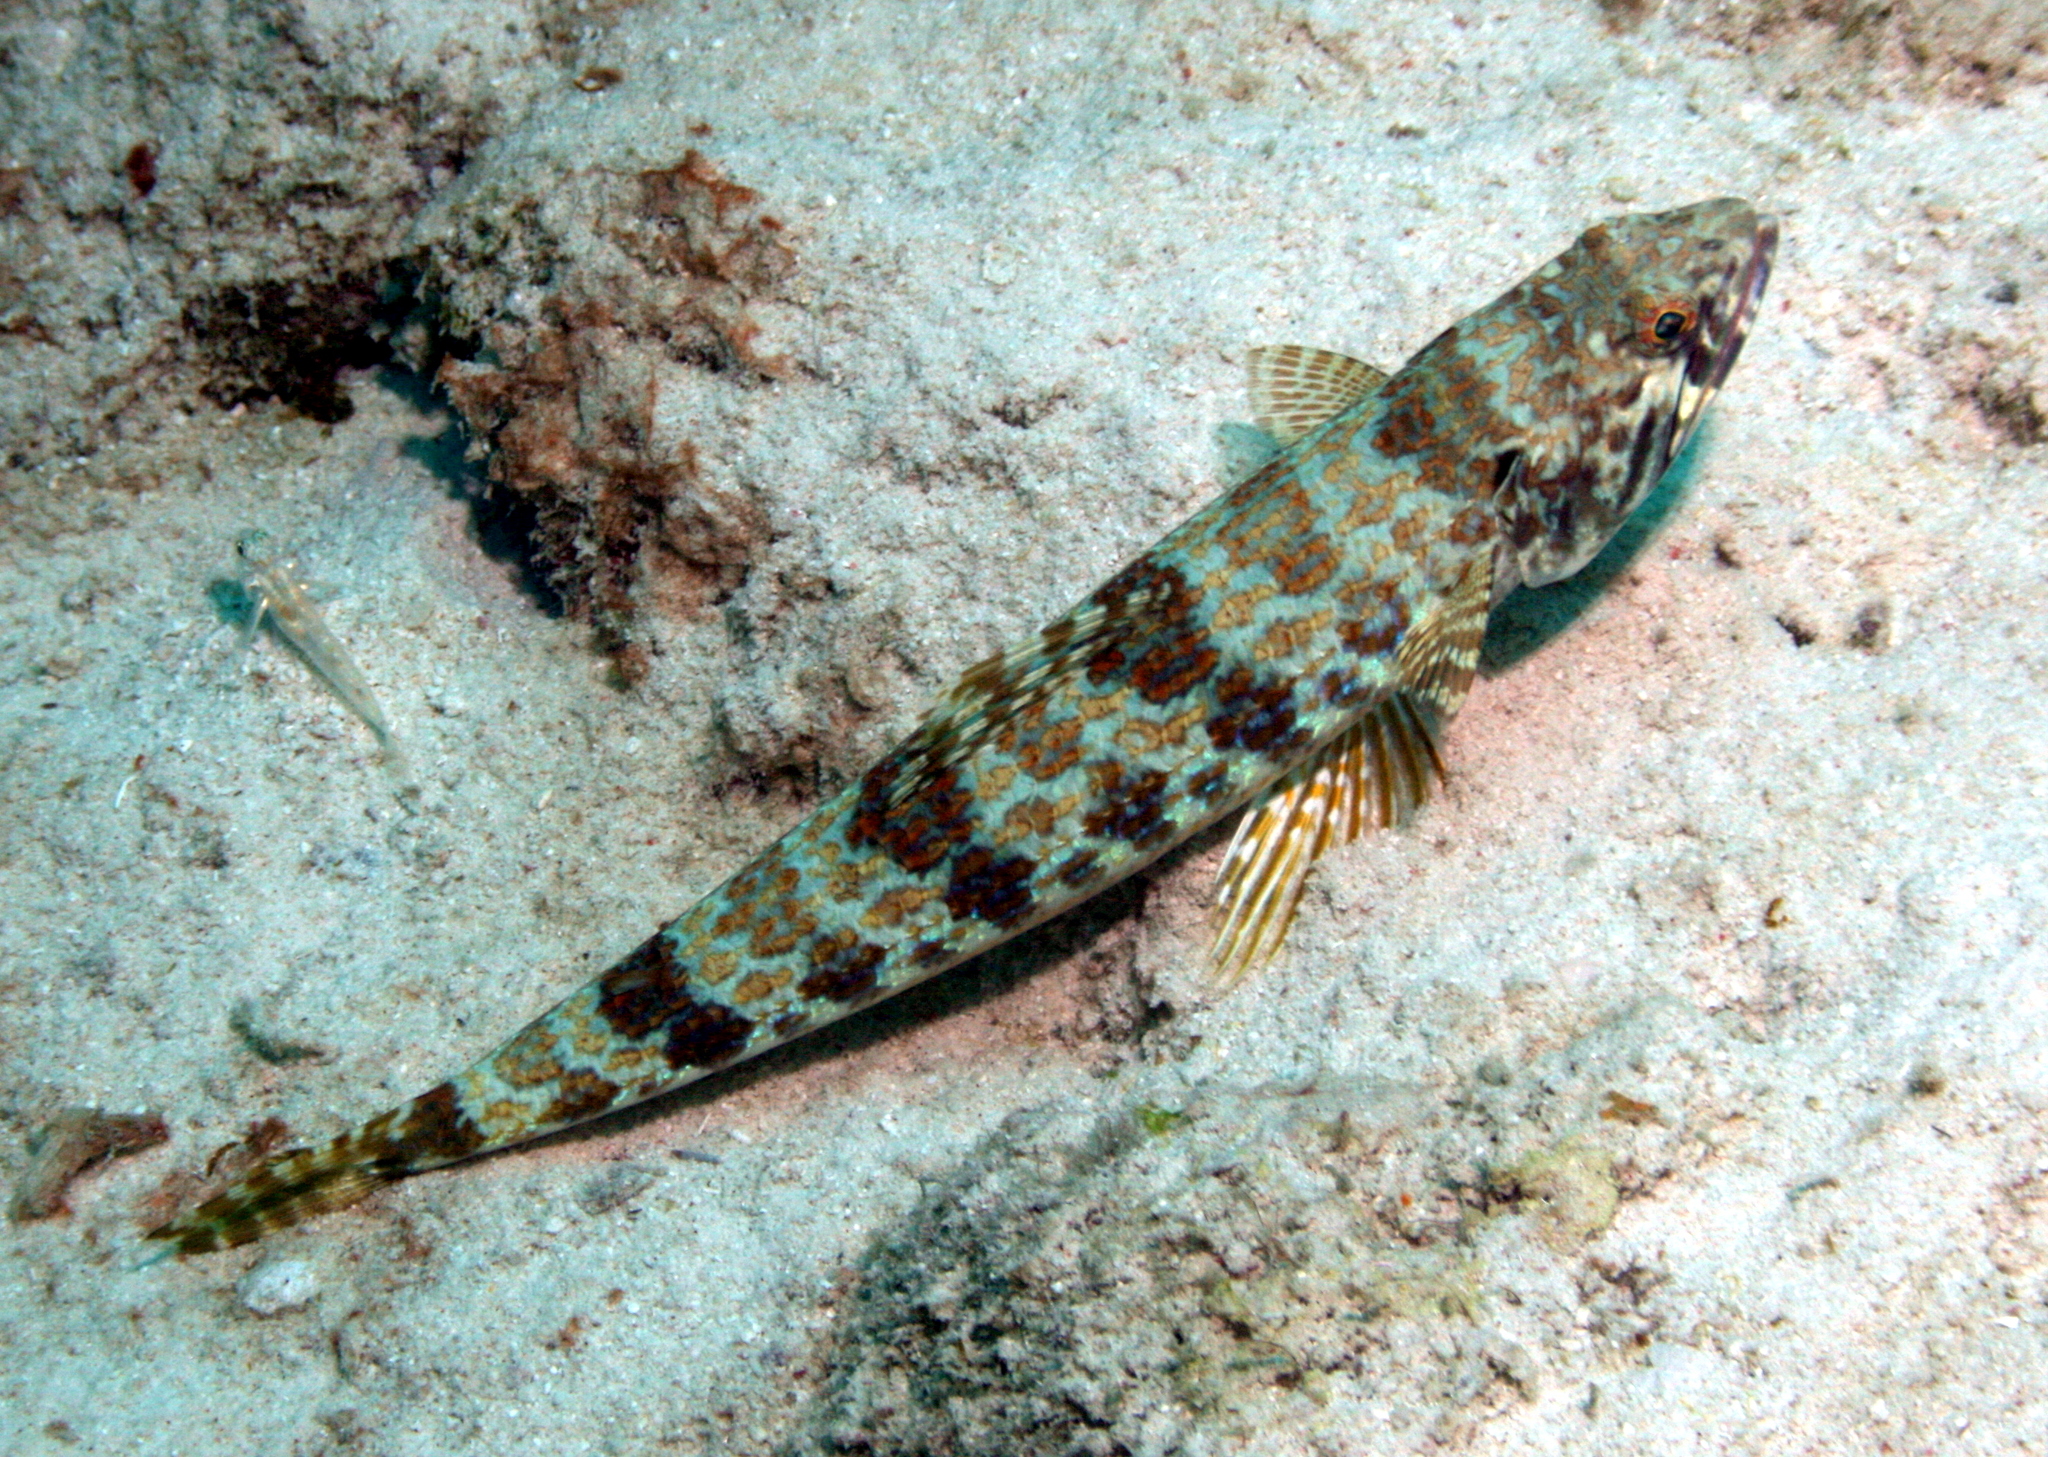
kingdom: Animalia
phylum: Chordata
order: Aulopiformes
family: Synodontidae
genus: Synodus
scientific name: Synodus intermedius
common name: Sand diver
